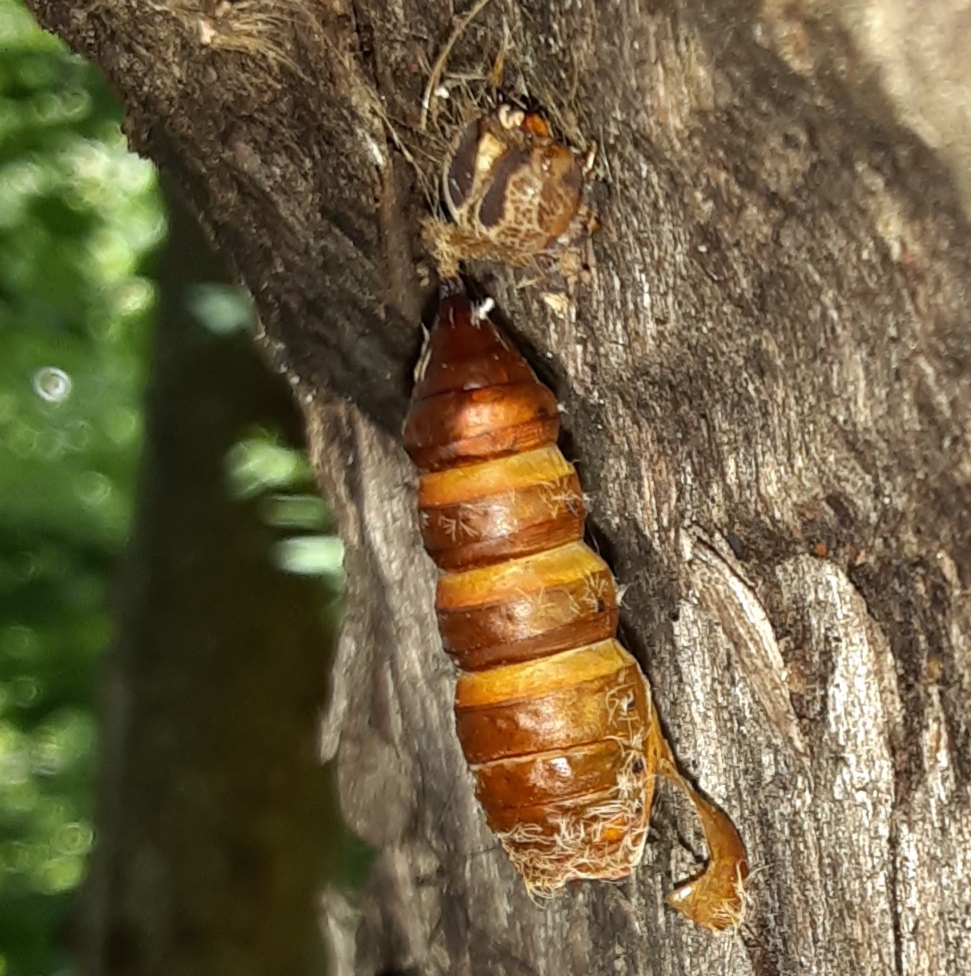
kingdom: Animalia
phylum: Arthropoda
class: Insecta
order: Lepidoptera
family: Erebidae
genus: Lymantria
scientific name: Lymantria dispar
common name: Gypsy moth
